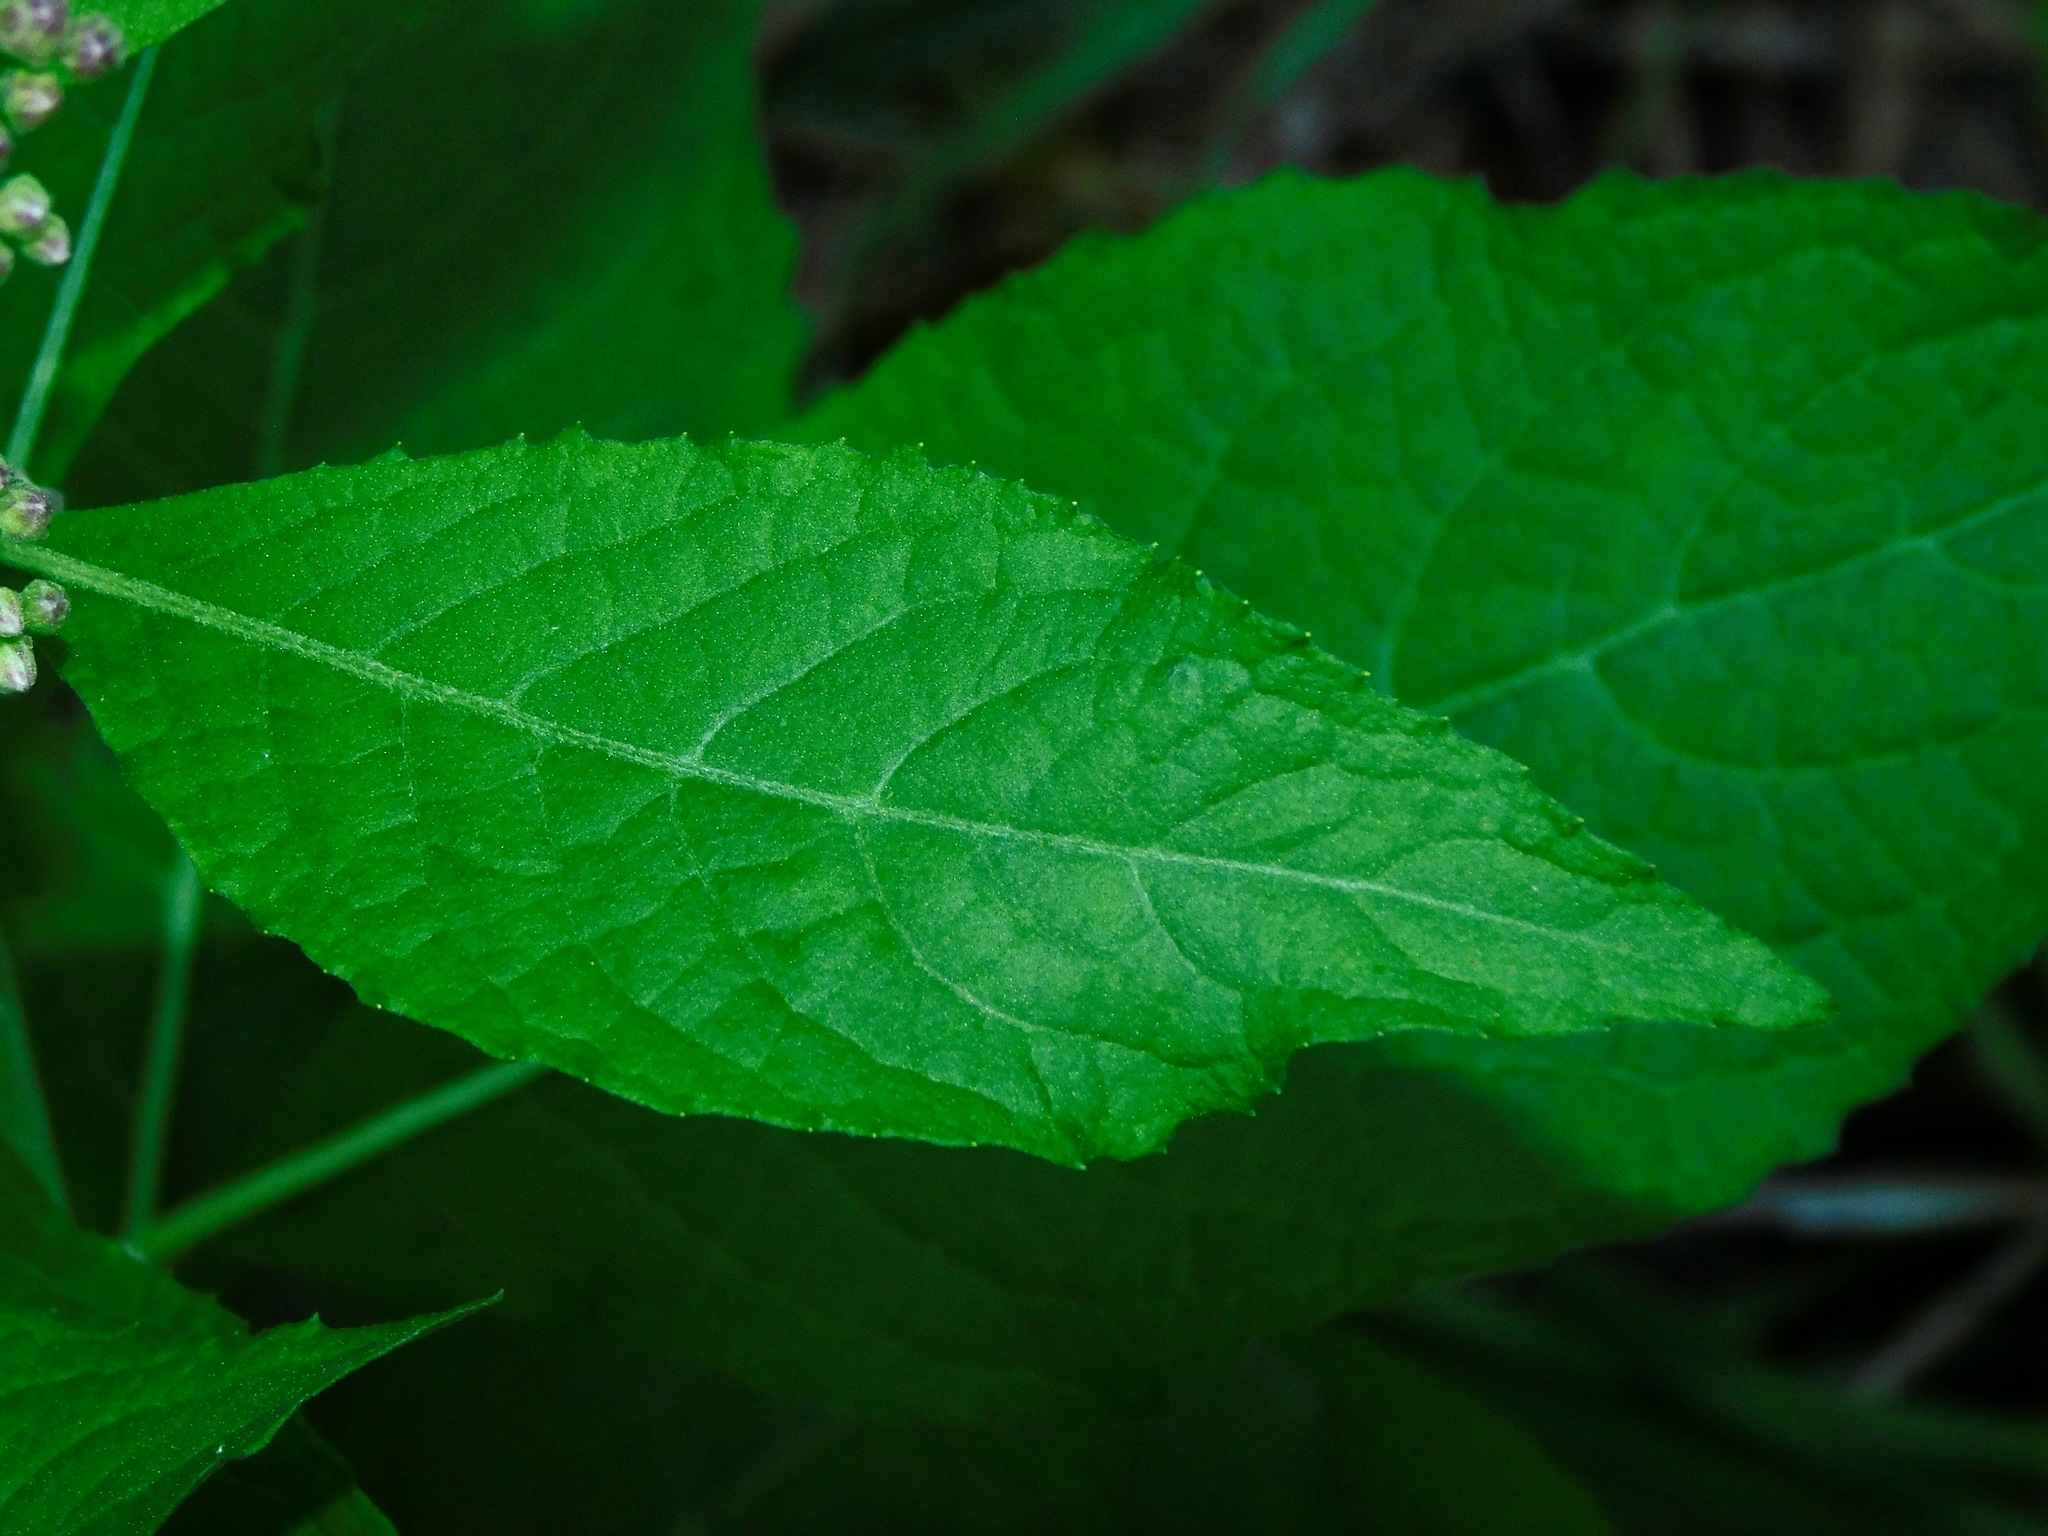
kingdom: Plantae
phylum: Tracheophyta
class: Magnoliopsida
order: Asterales
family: Asteraceae
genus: Pluchea
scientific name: Pluchea odorata
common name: Saltmarsh fleabane
